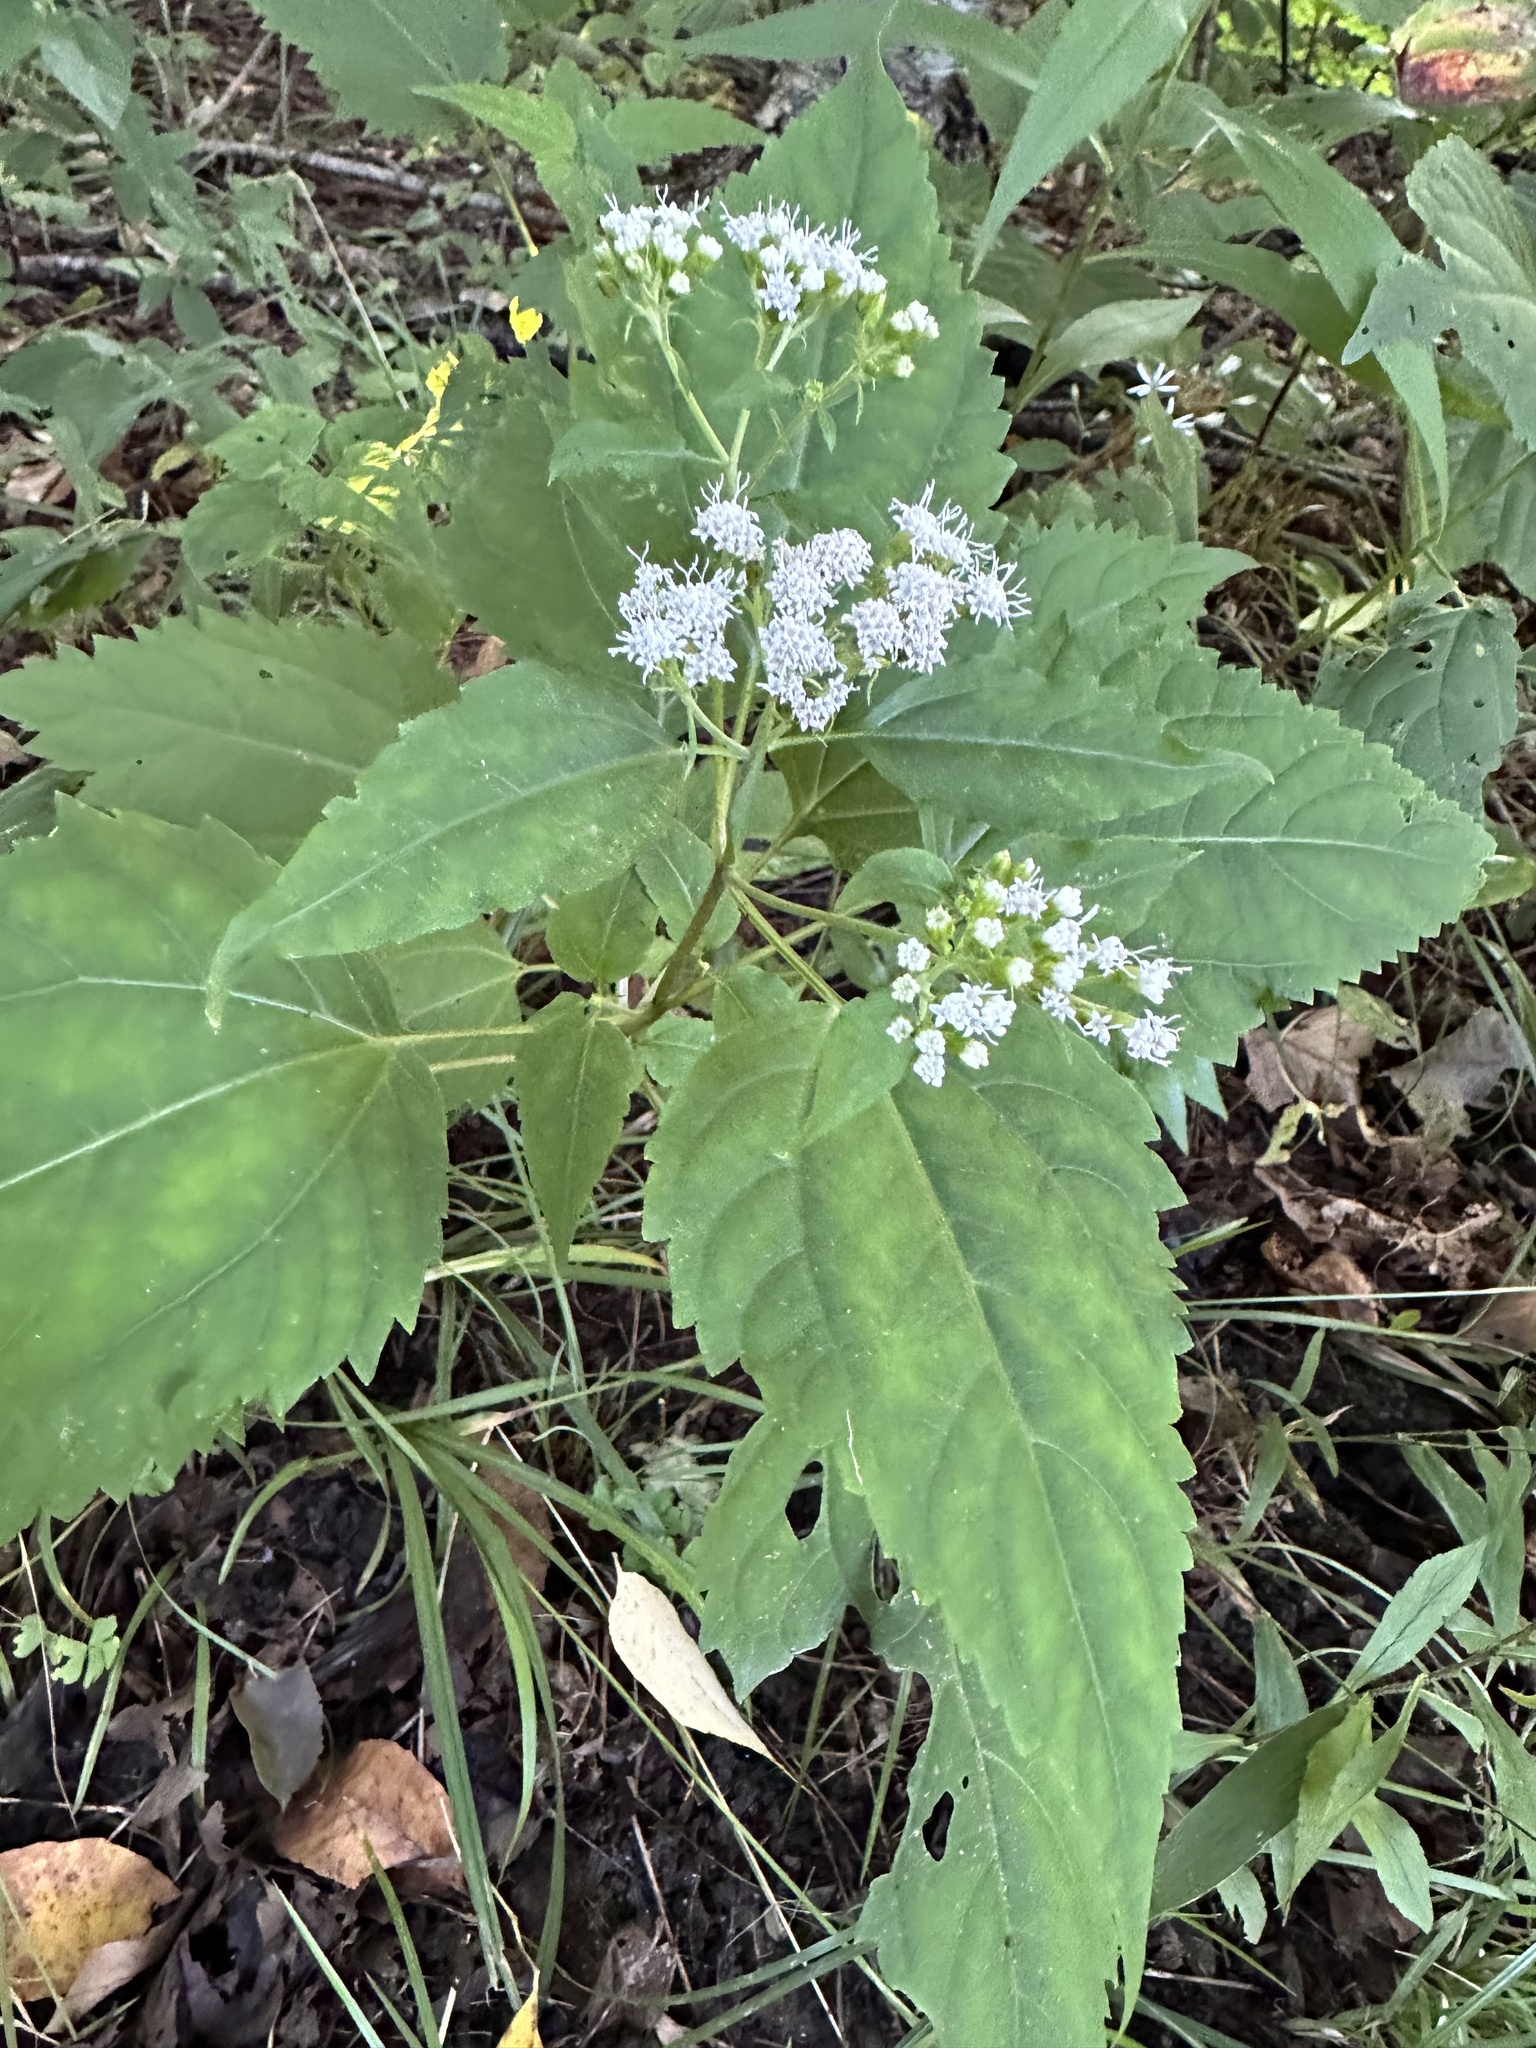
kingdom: Plantae
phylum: Tracheophyta
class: Magnoliopsida
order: Asterales
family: Asteraceae
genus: Ageratina
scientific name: Ageratina altissima
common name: White snakeroot
